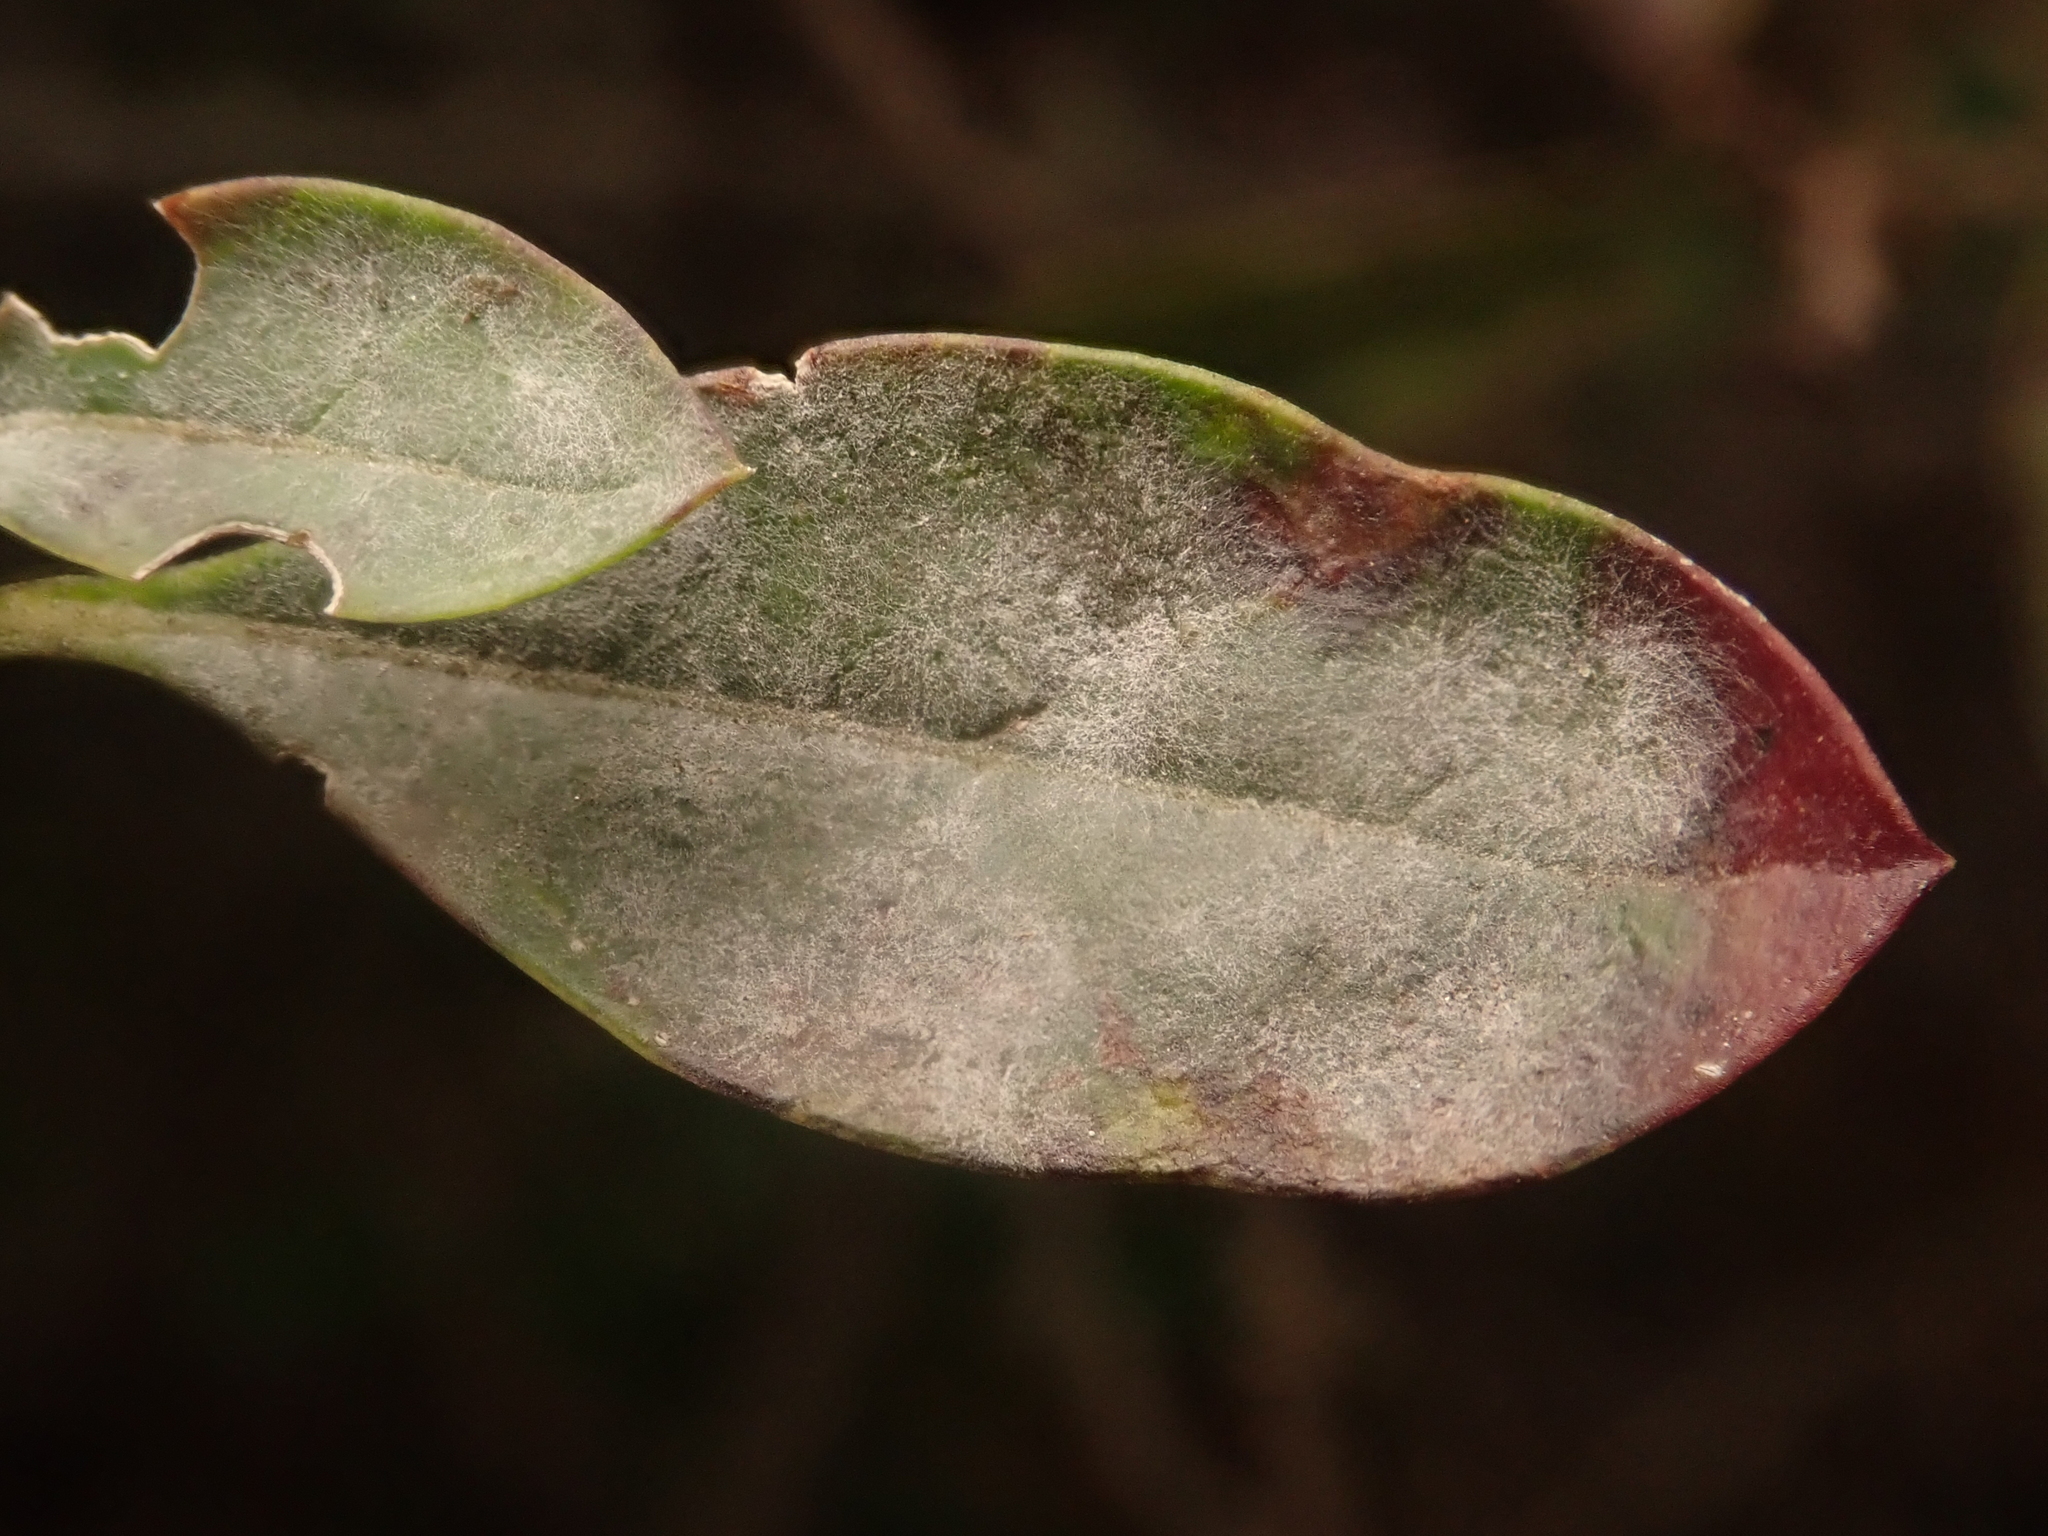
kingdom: Fungi
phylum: Ascomycota
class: Leotiomycetes
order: Helotiales
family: Erysiphaceae
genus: Erysiphe
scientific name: Erysiphe syringae
